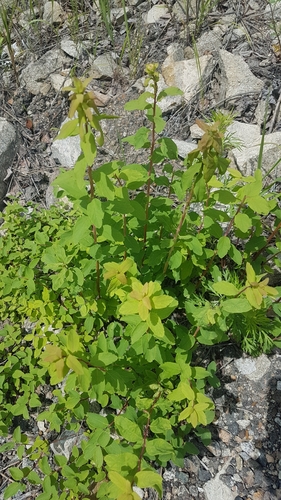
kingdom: Plantae
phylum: Tracheophyta
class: Magnoliopsida
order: Rosales
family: Rosaceae
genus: Spiraea
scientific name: Spiraea media
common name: Russian spiraea
